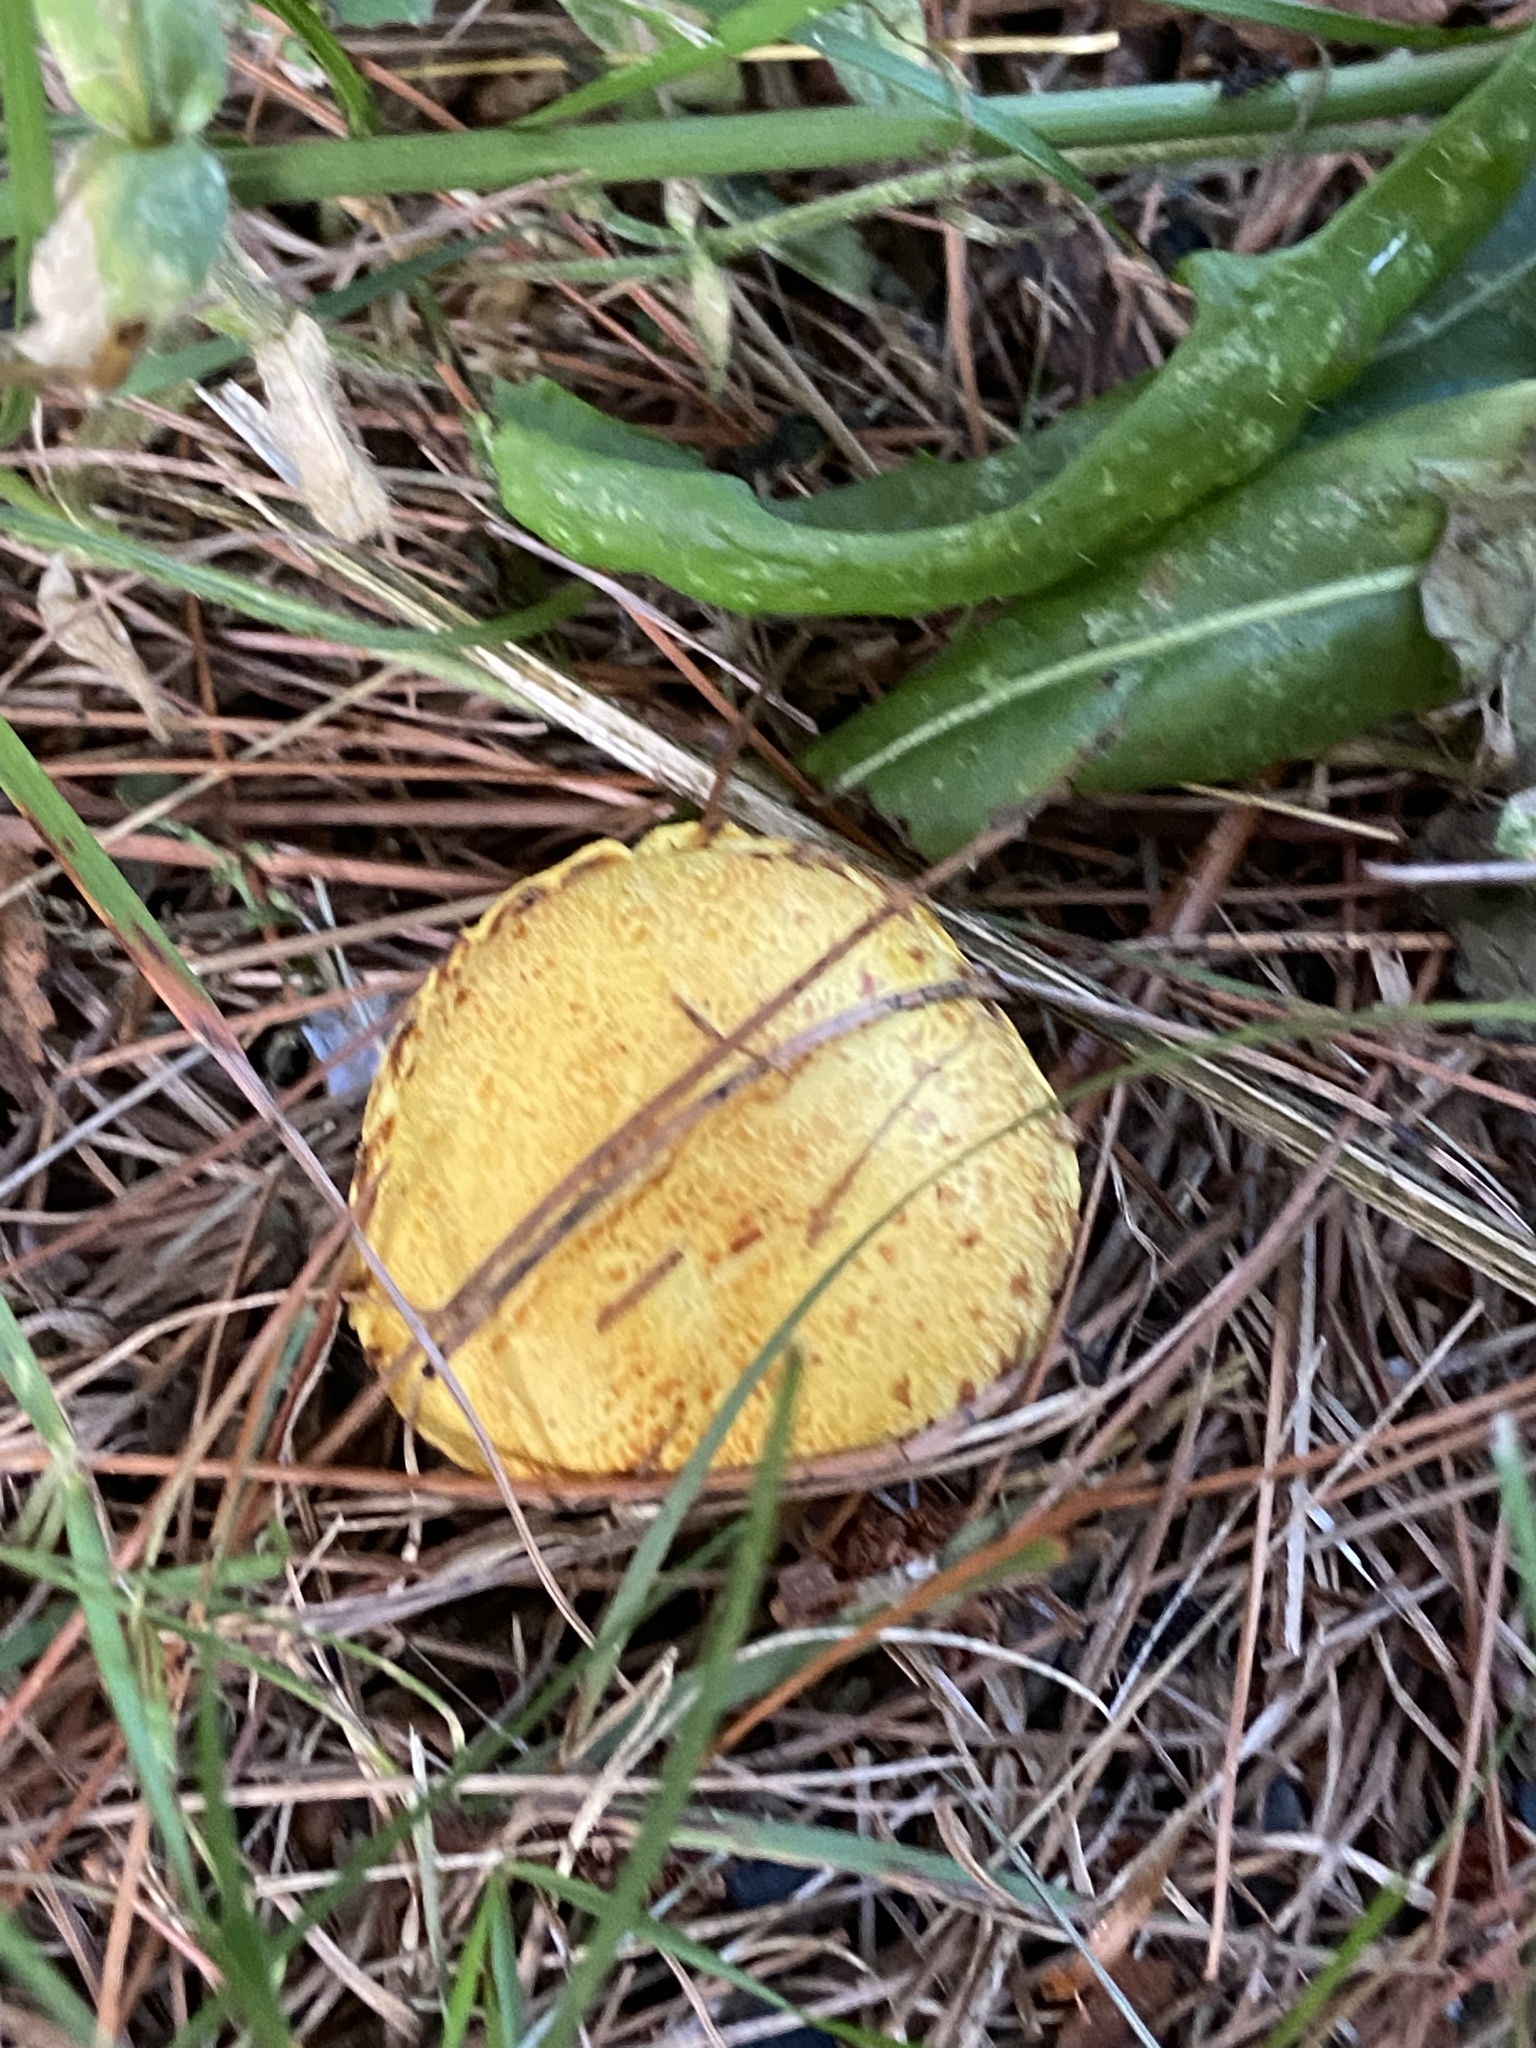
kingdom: Fungi
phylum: Basidiomycota
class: Agaricomycetes
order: Boletales
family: Suillaceae
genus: Suillus
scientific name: Suillus americanus
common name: Chicken fat mushroom
